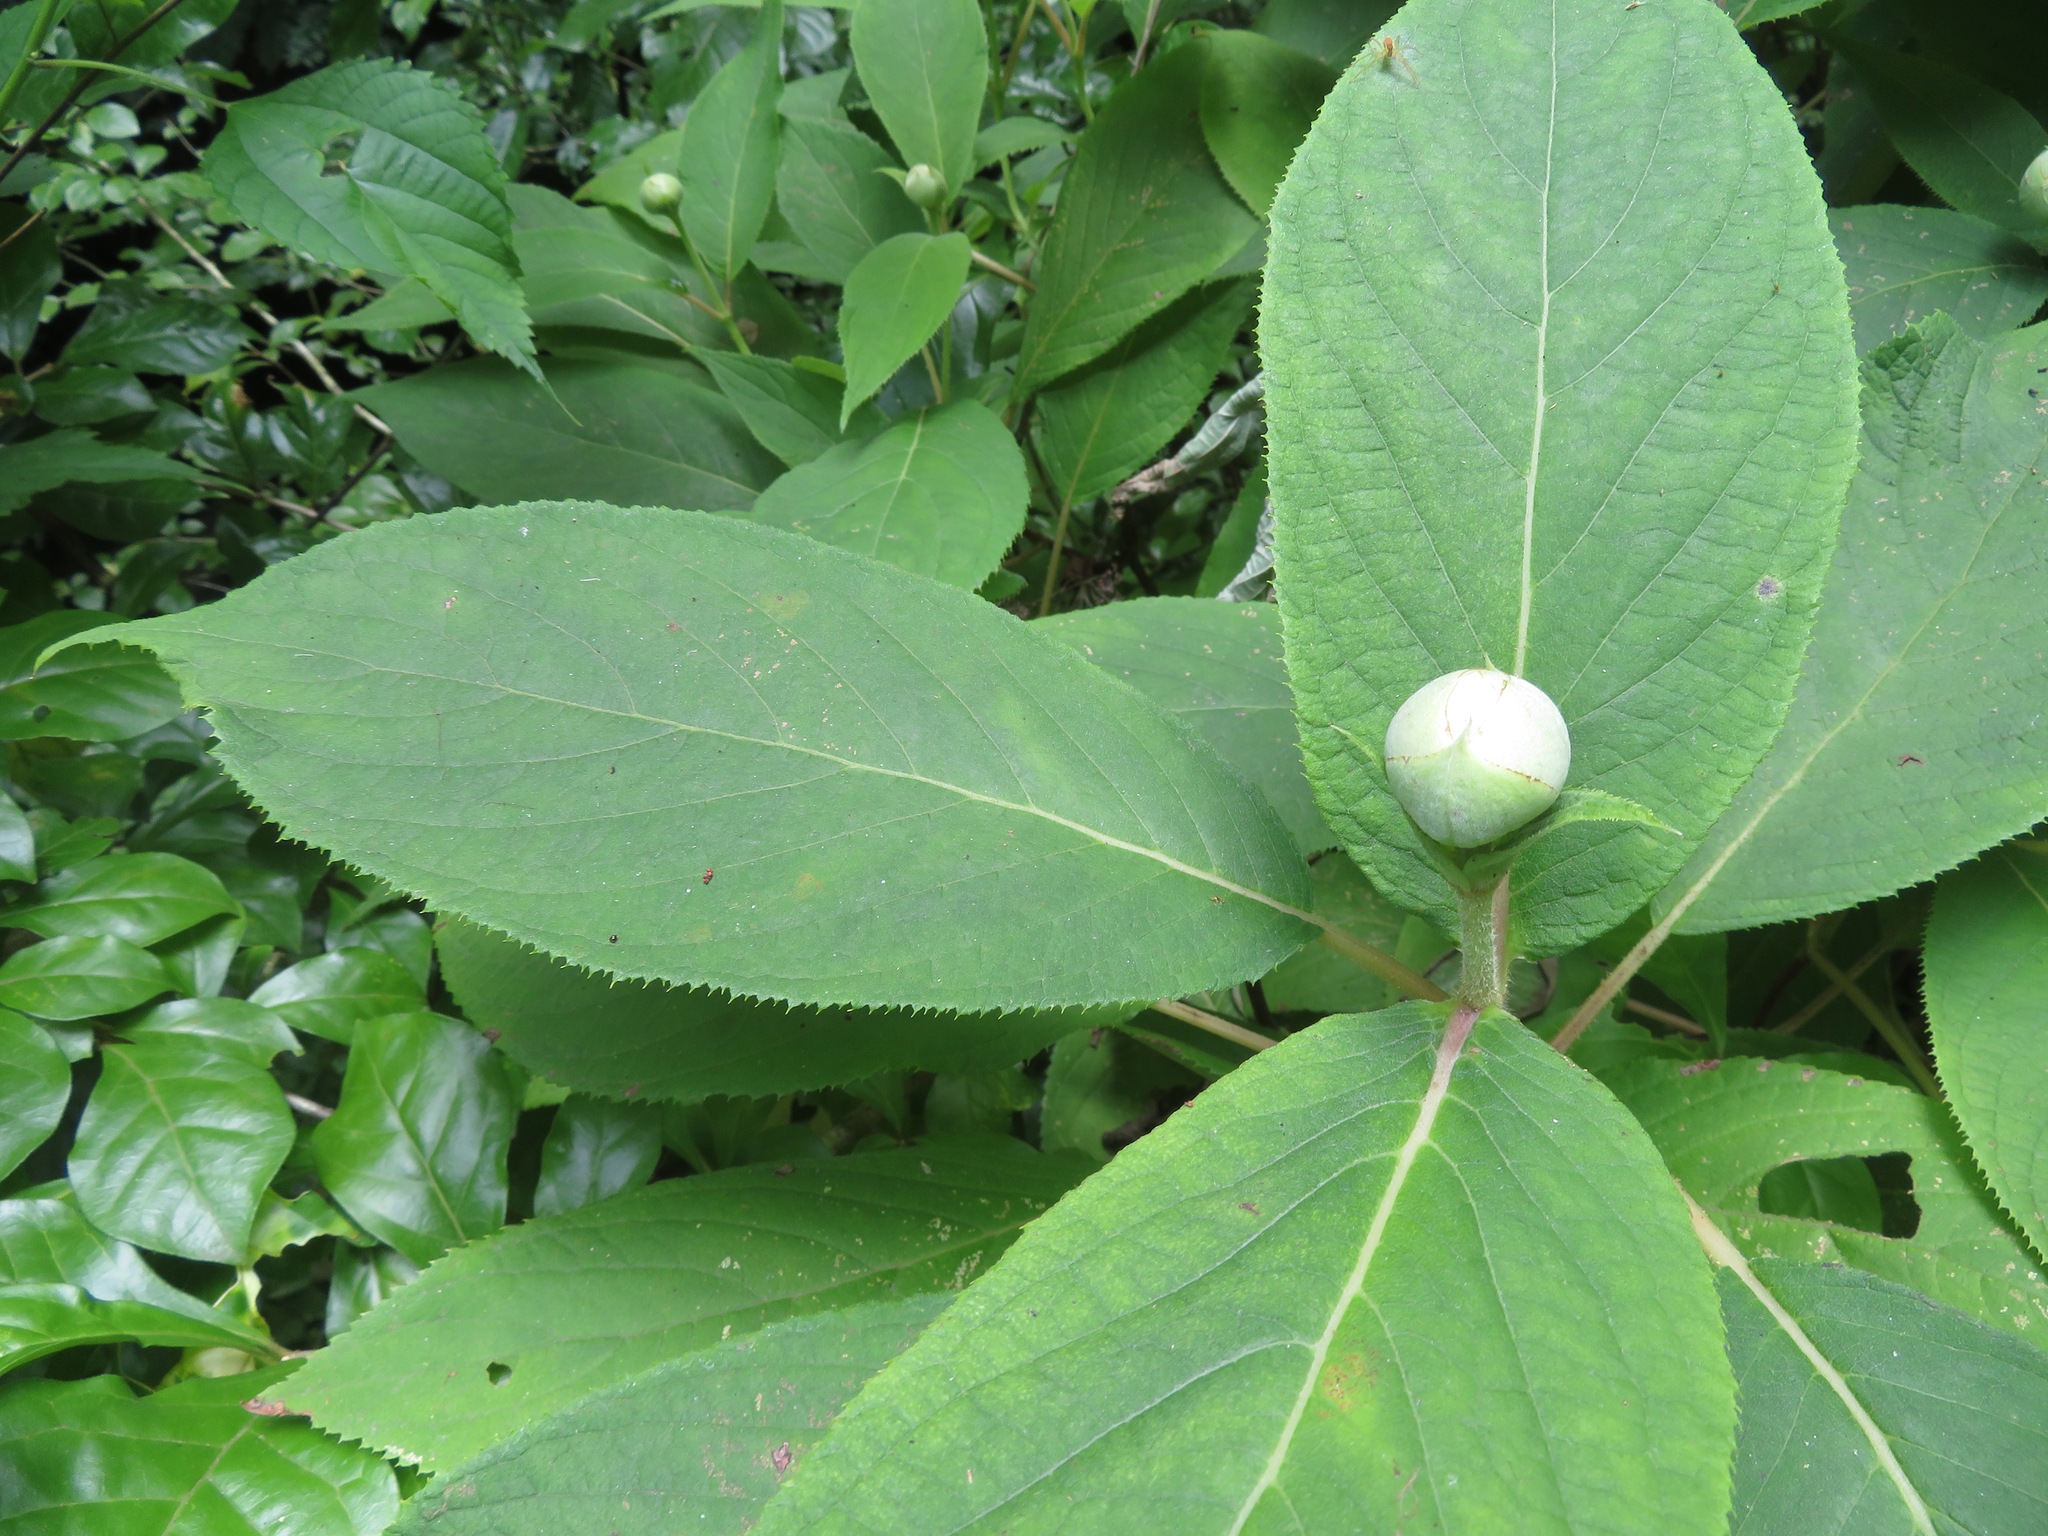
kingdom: Plantae
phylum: Tracheophyta
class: Magnoliopsida
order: Cornales
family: Hydrangeaceae
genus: Hydrangea
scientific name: Hydrangea involucrata
